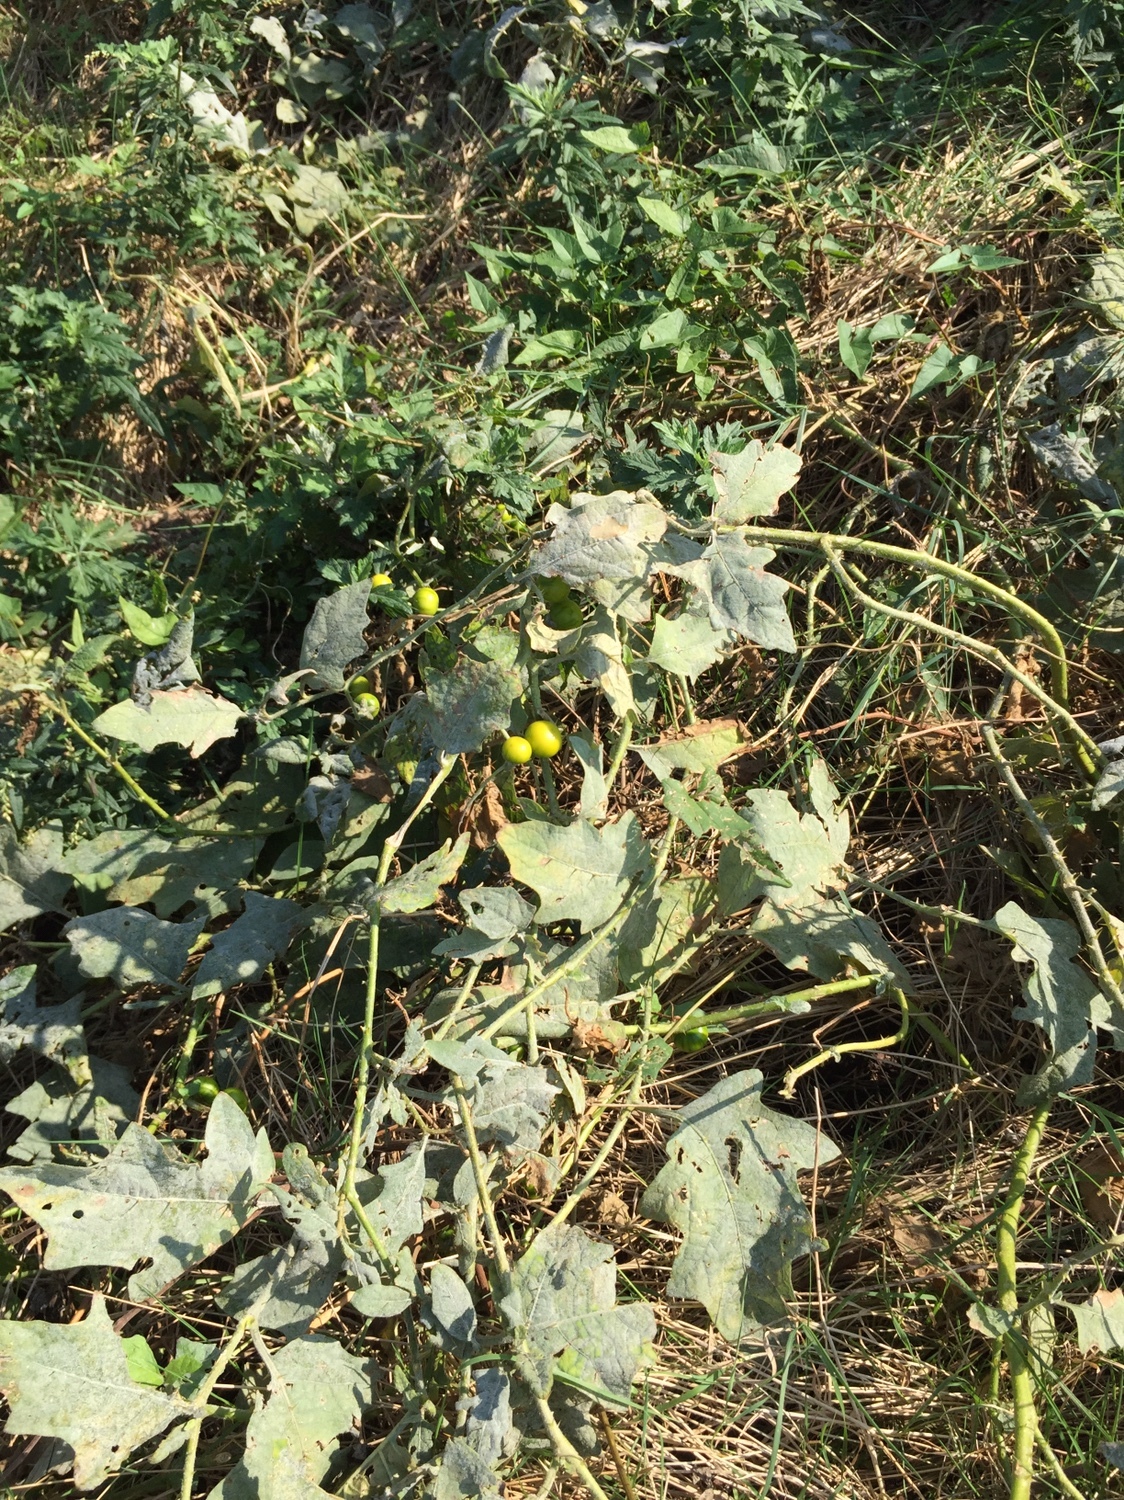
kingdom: Plantae
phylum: Tracheophyta
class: Magnoliopsida
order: Solanales
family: Solanaceae
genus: Solanum
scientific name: Solanum carolinense
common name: Horse-nettle
